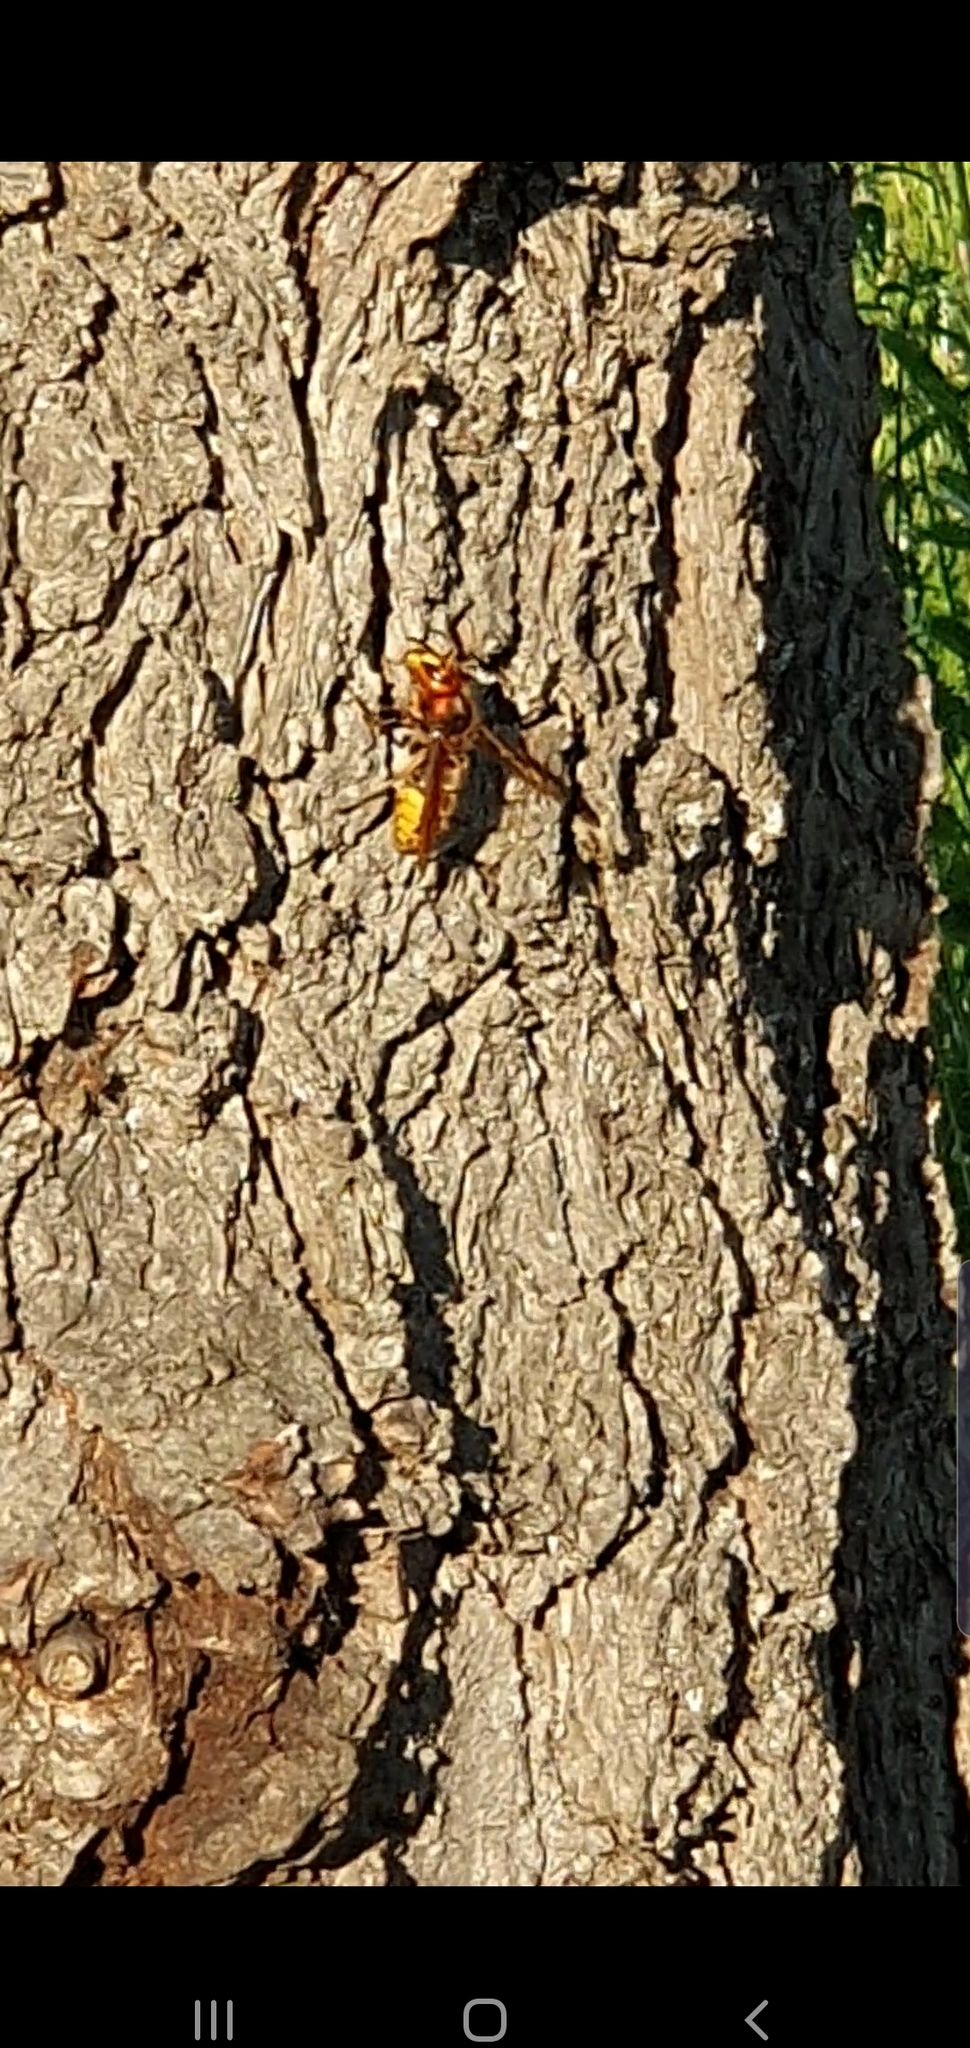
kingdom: Animalia
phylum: Arthropoda
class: Insecta
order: Hymenoptera
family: Vespidae
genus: Vespa
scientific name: Vespa crabro
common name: Hornet
